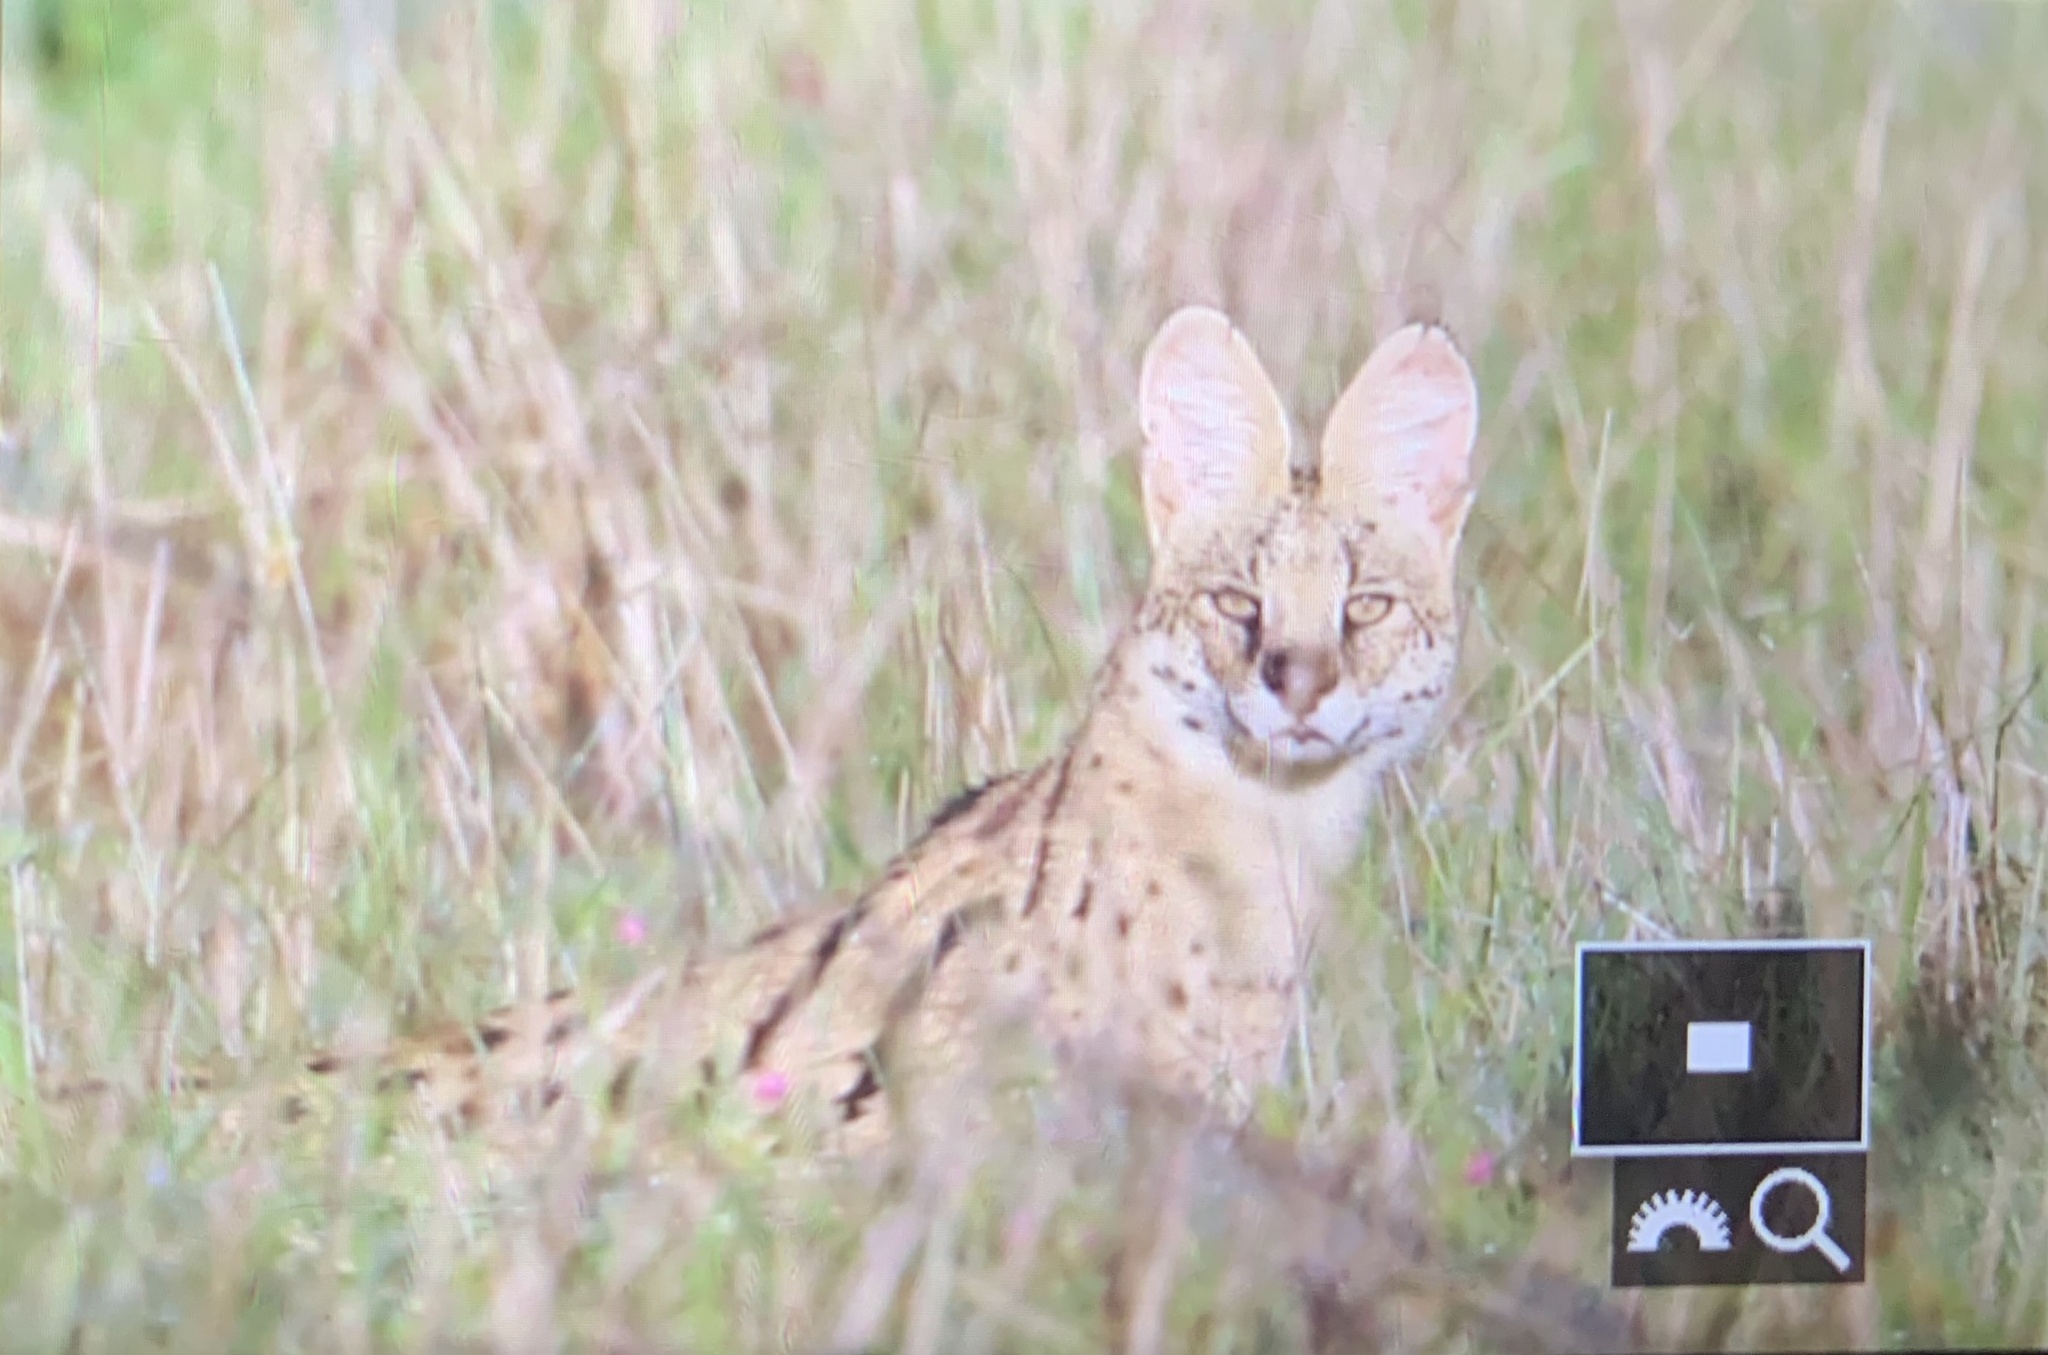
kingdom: Animalia
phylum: Chordata
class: Mammalia
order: Carnivora
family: Felidae
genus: Leptailurus
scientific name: Leptailurus serval
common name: Serval
